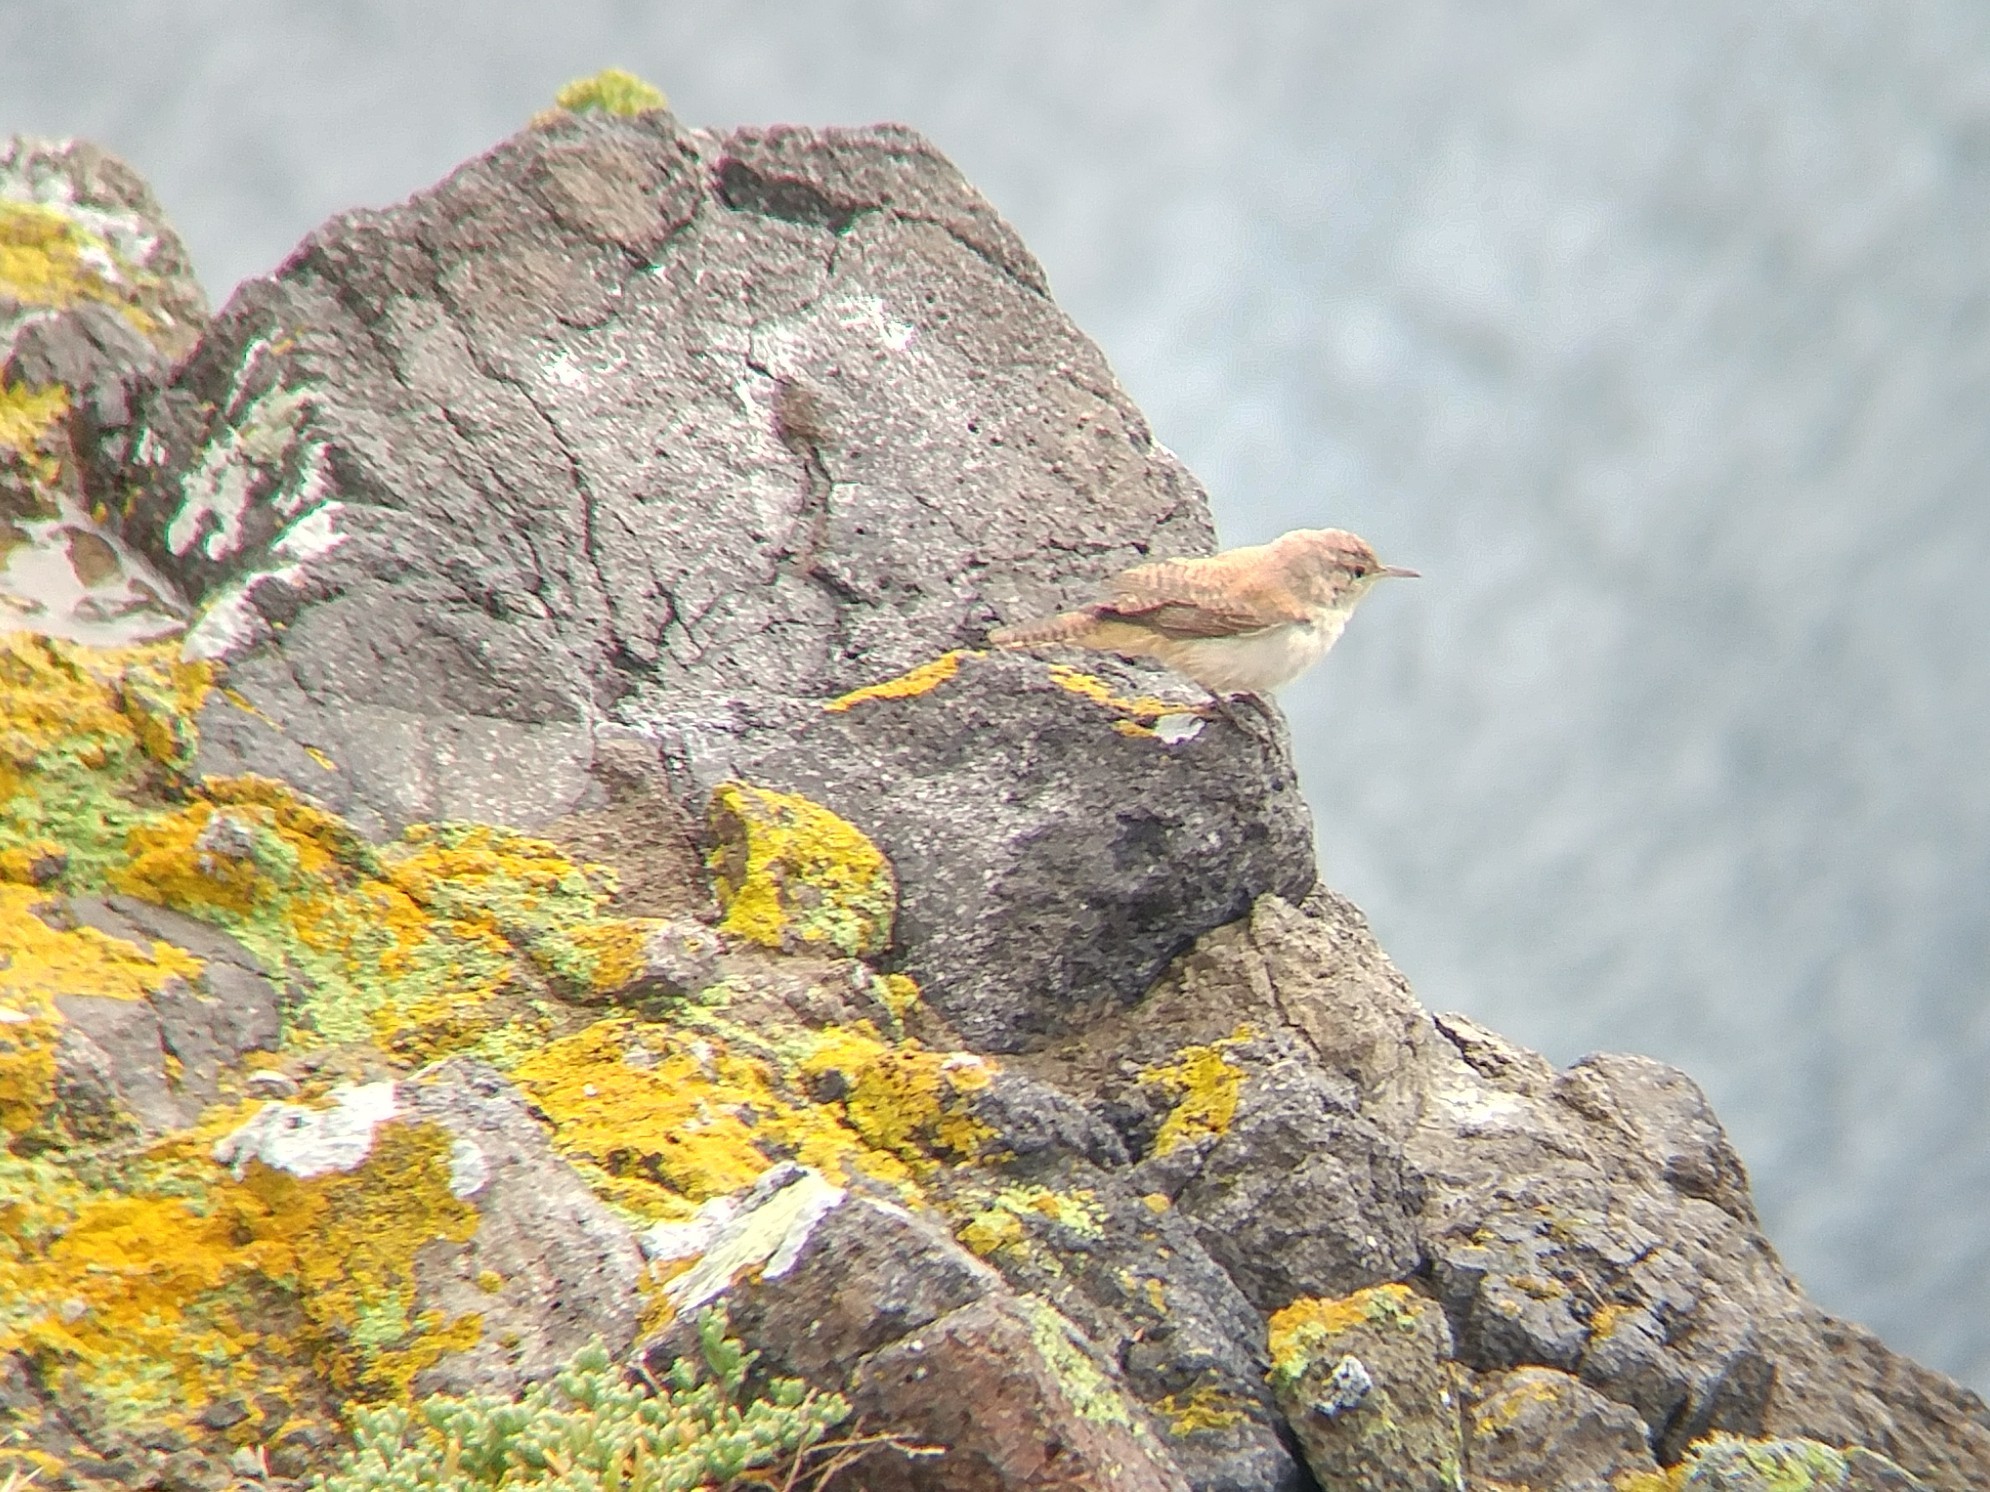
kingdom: Animalia
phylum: Chordata
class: Aves
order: Passeriformes
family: Troglodytidae
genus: Salpinctes
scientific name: Salpinctes obsoletus
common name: Rock wren
